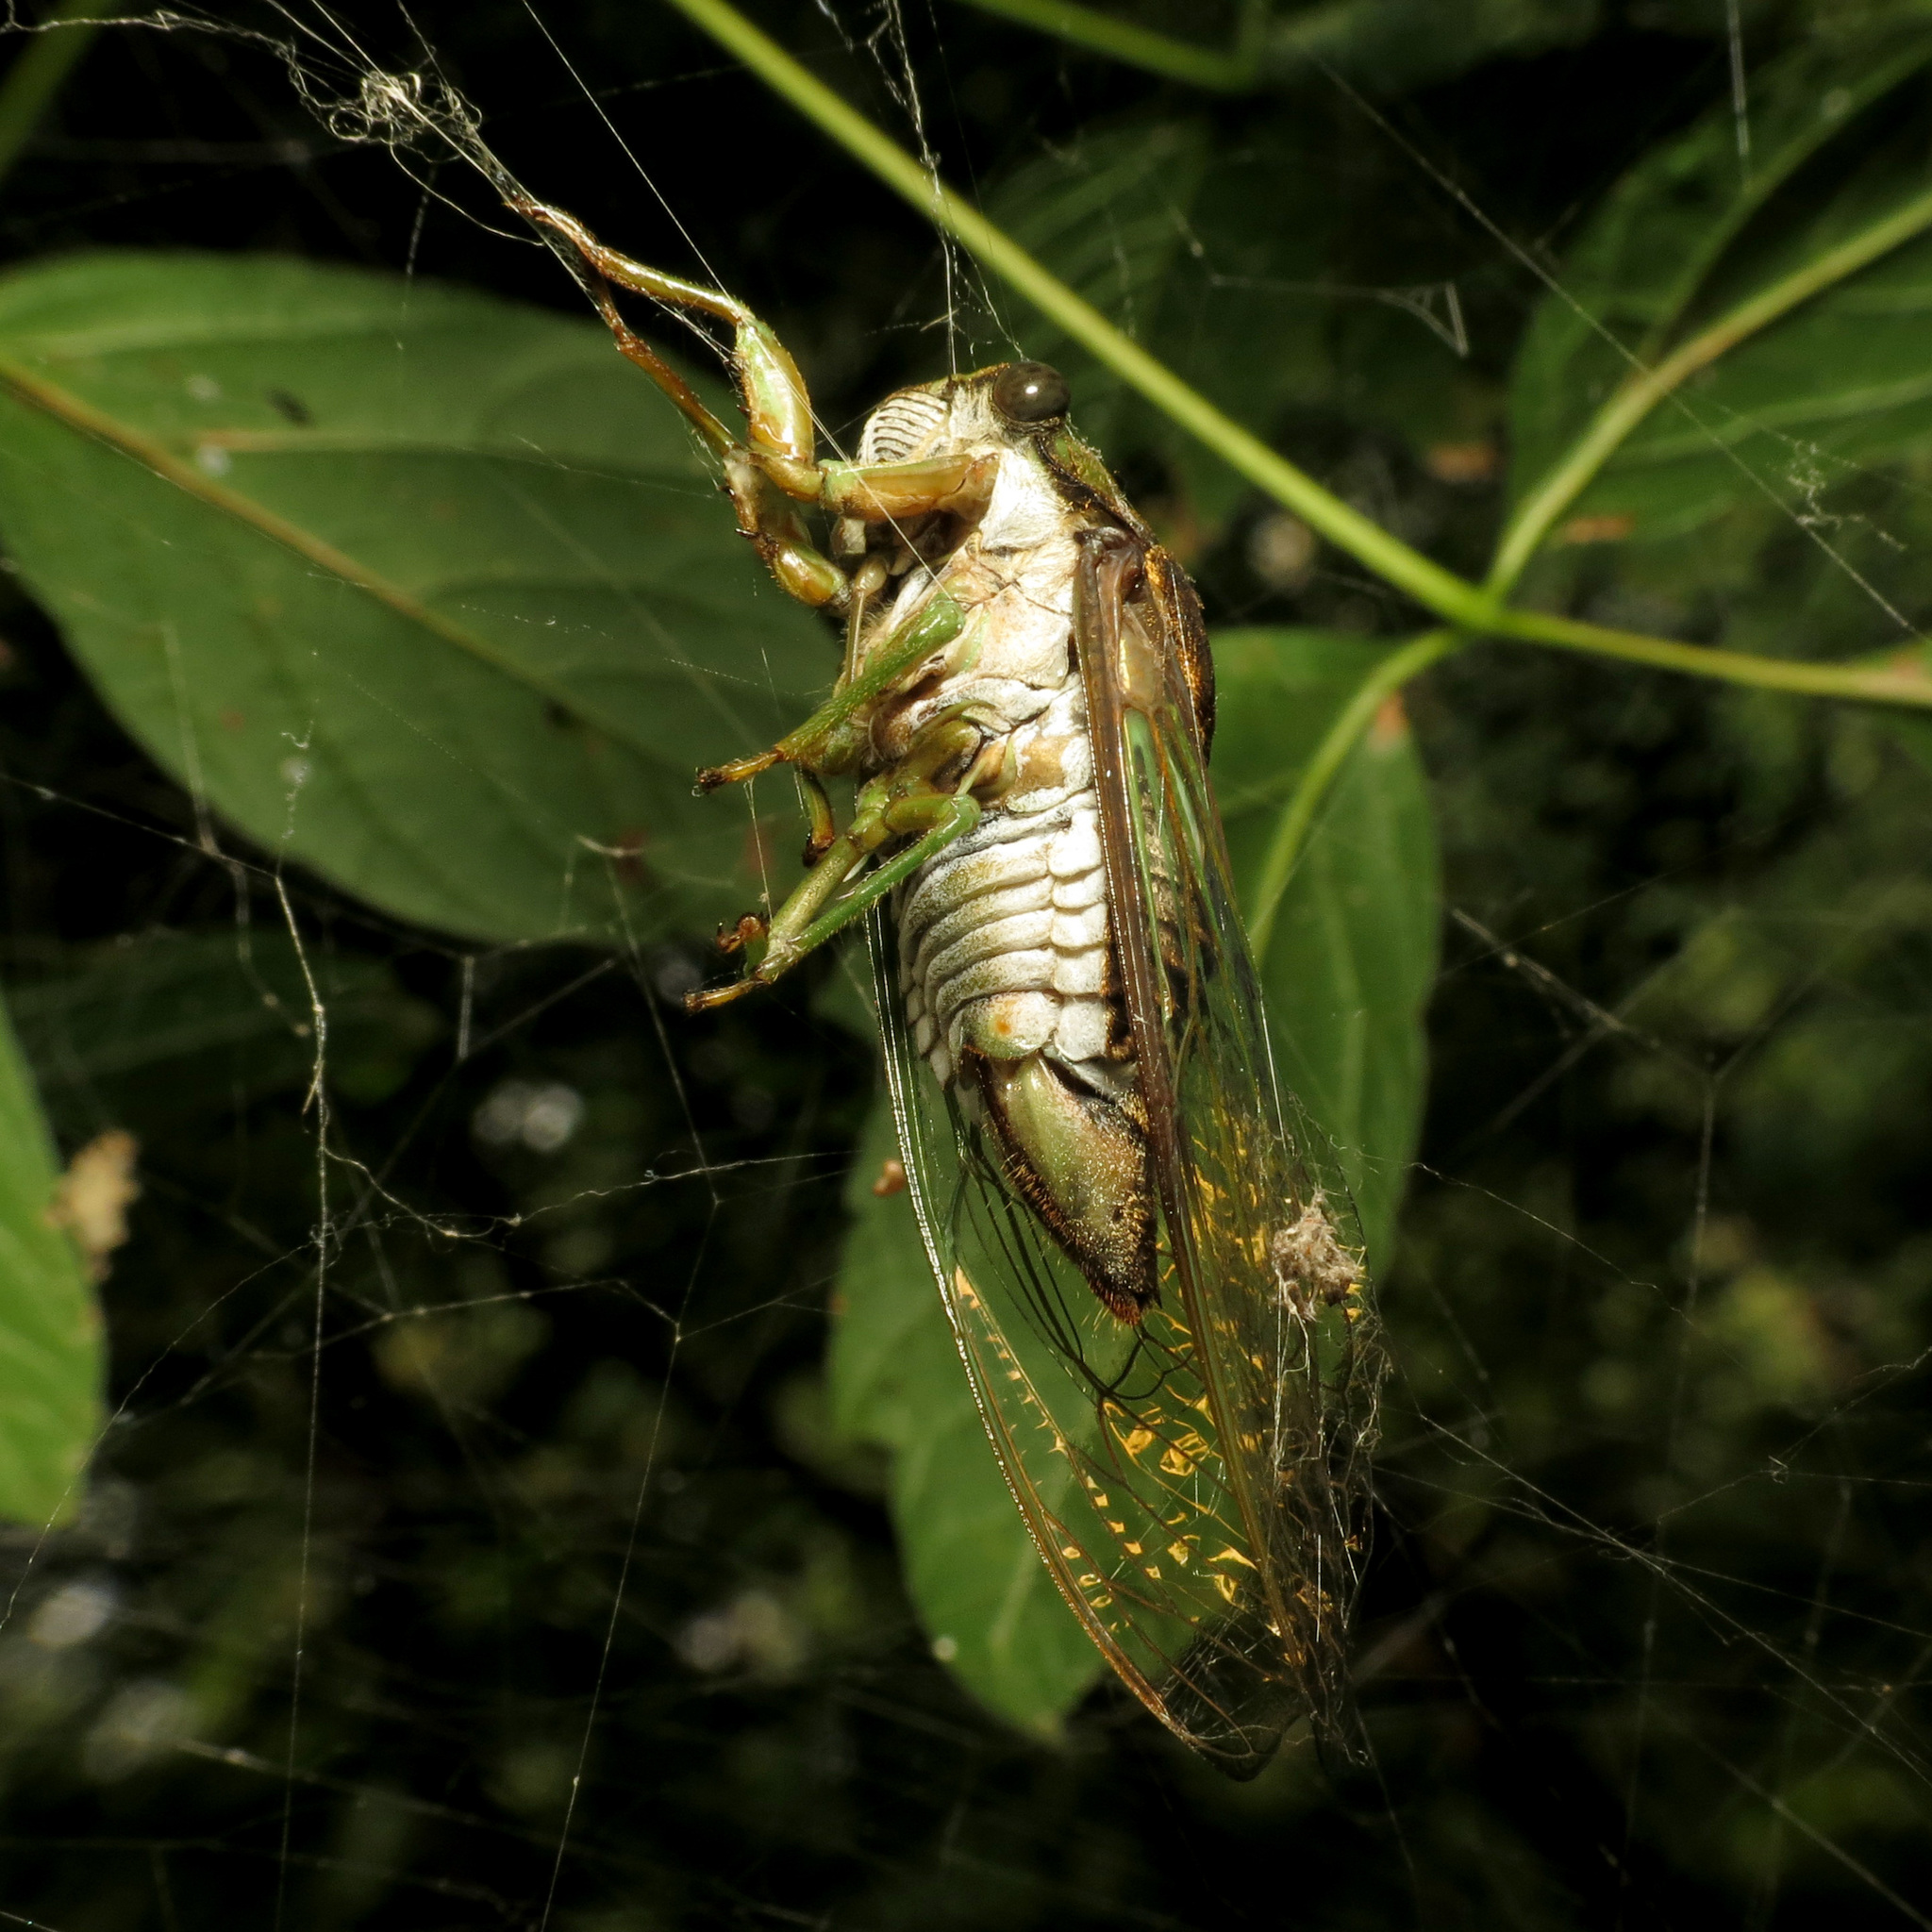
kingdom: Animalia
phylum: Arthropoda
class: Insecta
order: Hemiptera
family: Cicadidae
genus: Neotibicen
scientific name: Neotibicen tibicen
